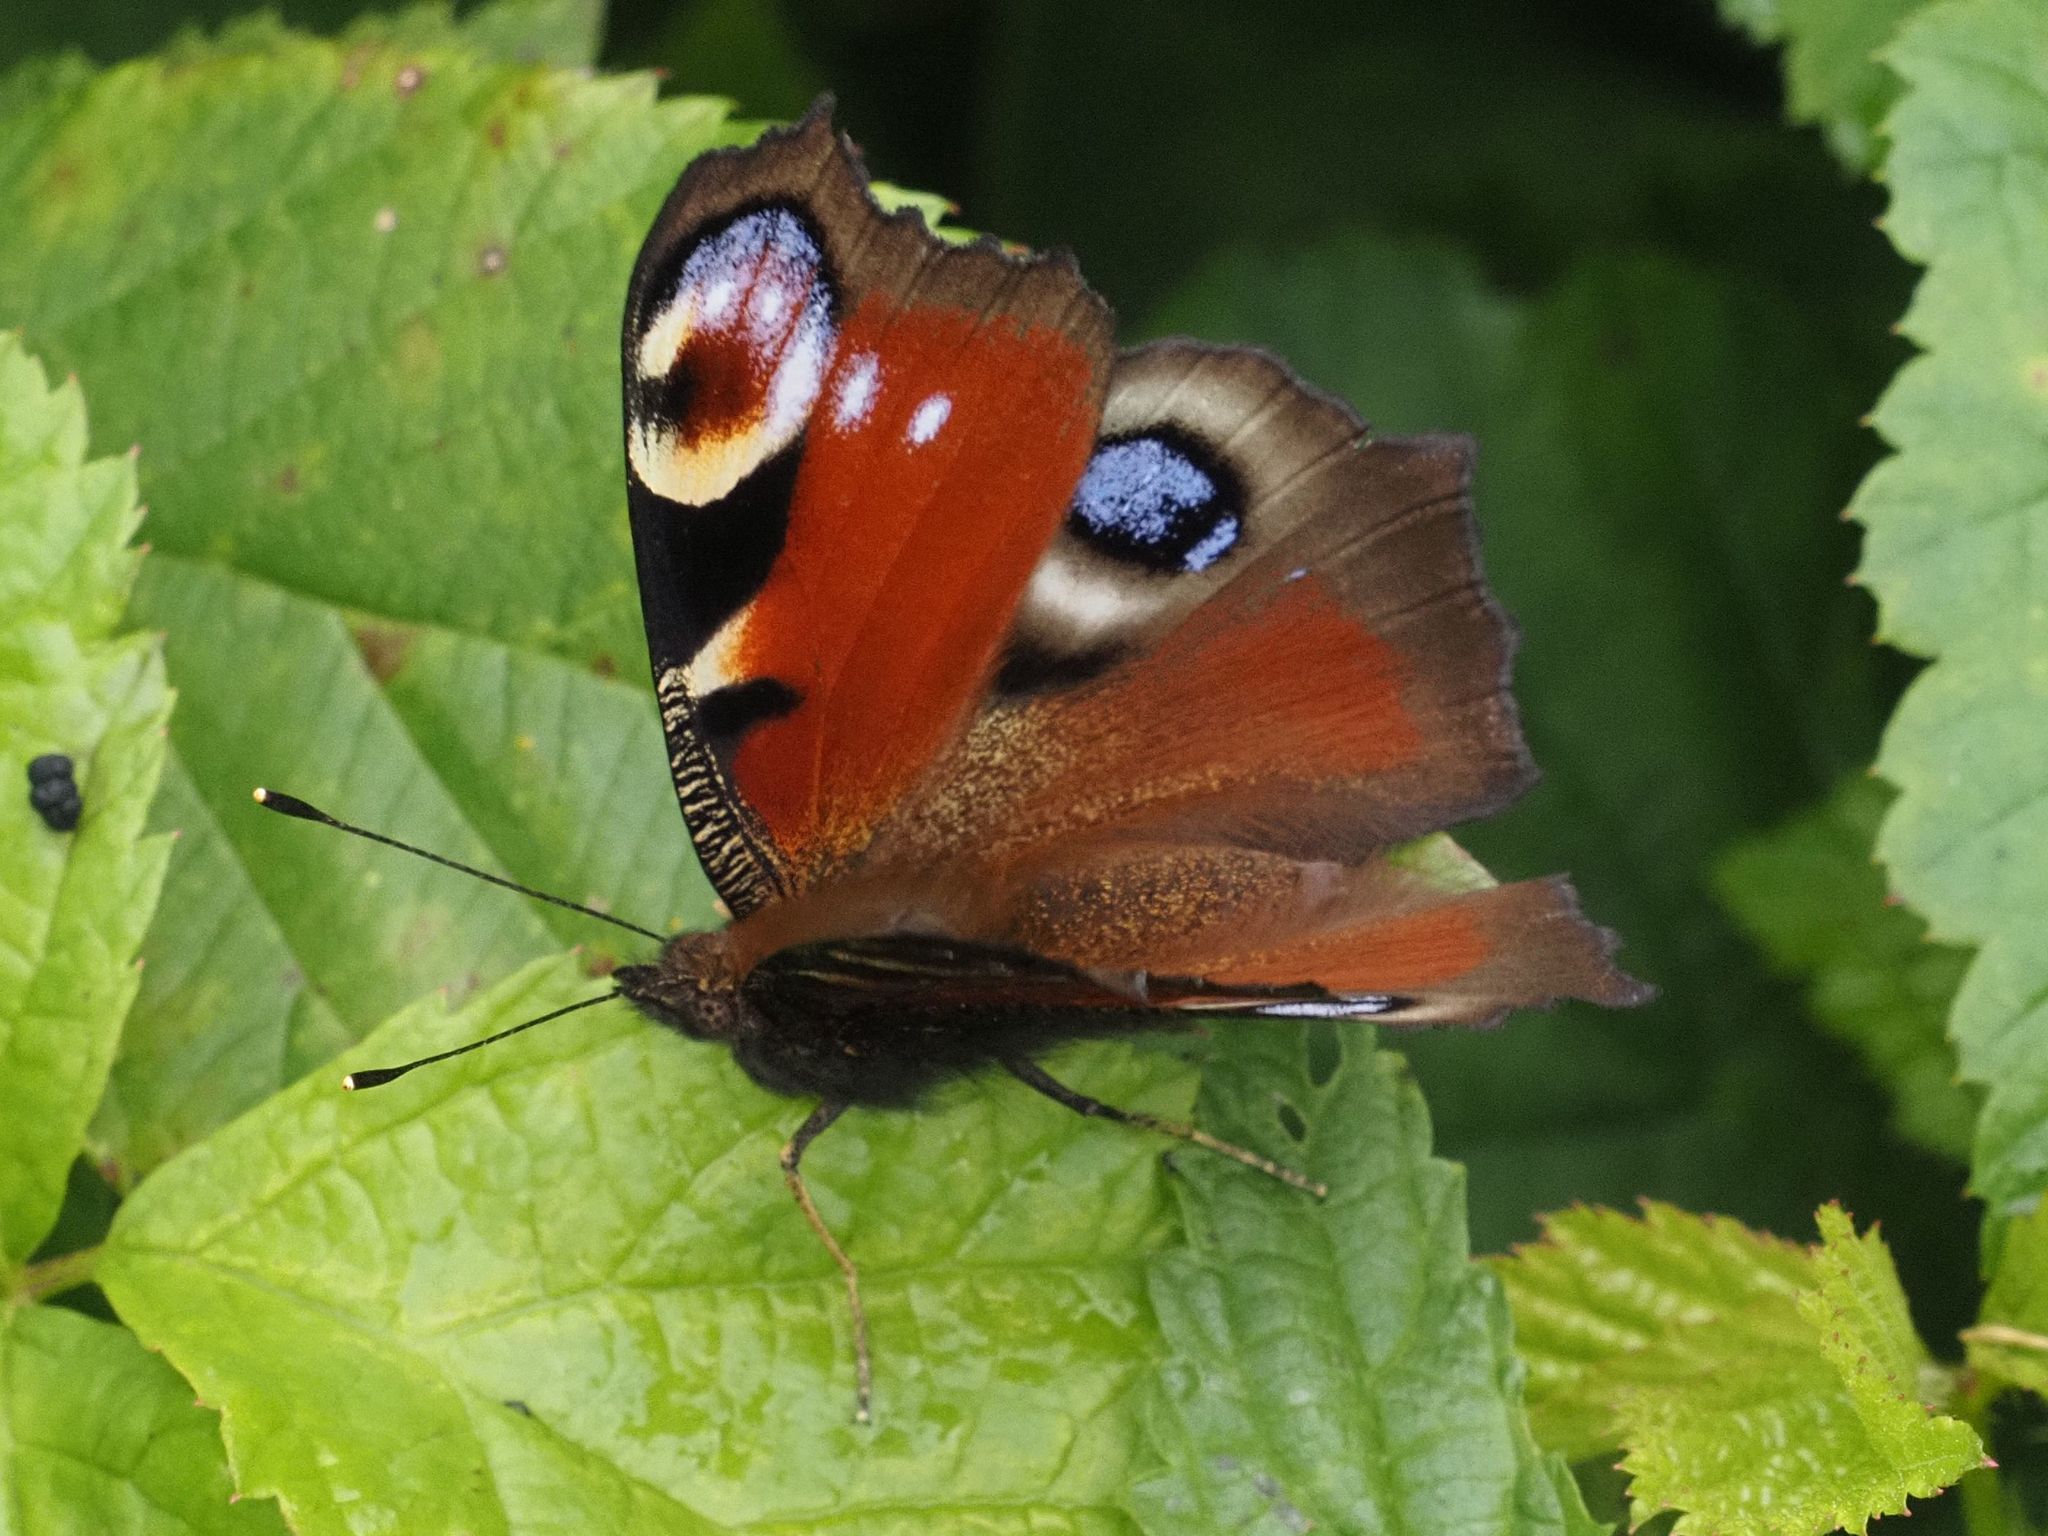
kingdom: Animalia
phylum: Arthropoda
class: Insecta
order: Lepidoptera
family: Nymphalidae
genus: Aglais
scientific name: Aglais io
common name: Peacock
